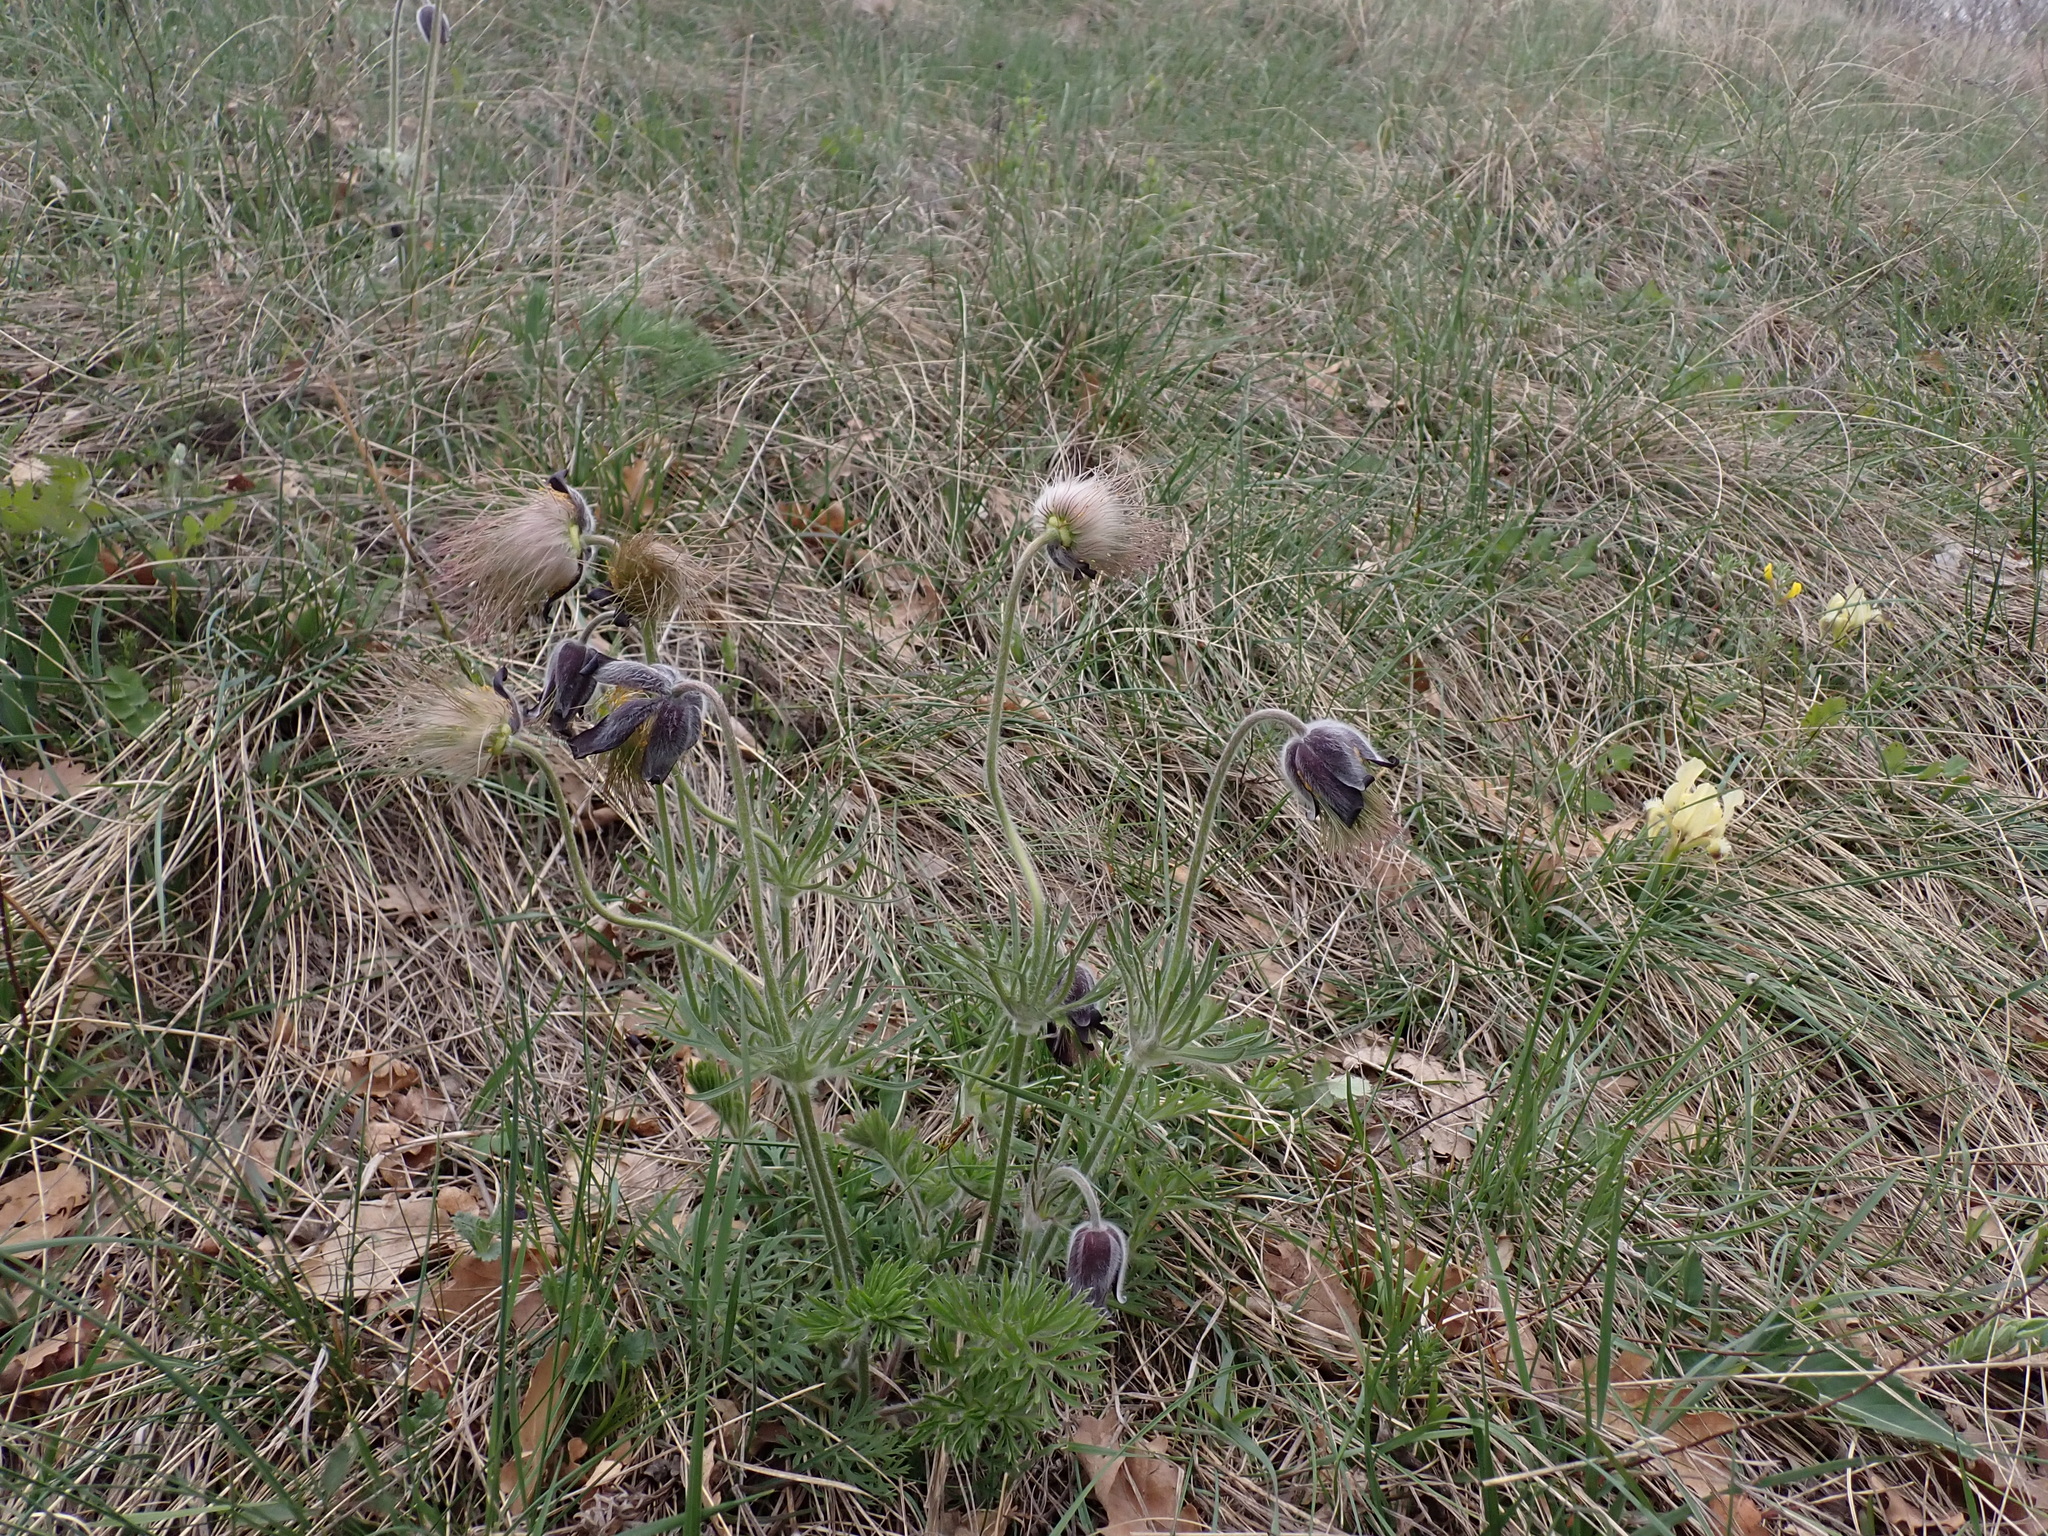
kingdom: Plantae
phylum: Tracheophyta
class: Magnoliopsida
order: Ranunculales
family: Ranunculaceae
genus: Pulsatilla
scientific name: Pulsatilla pratensis
